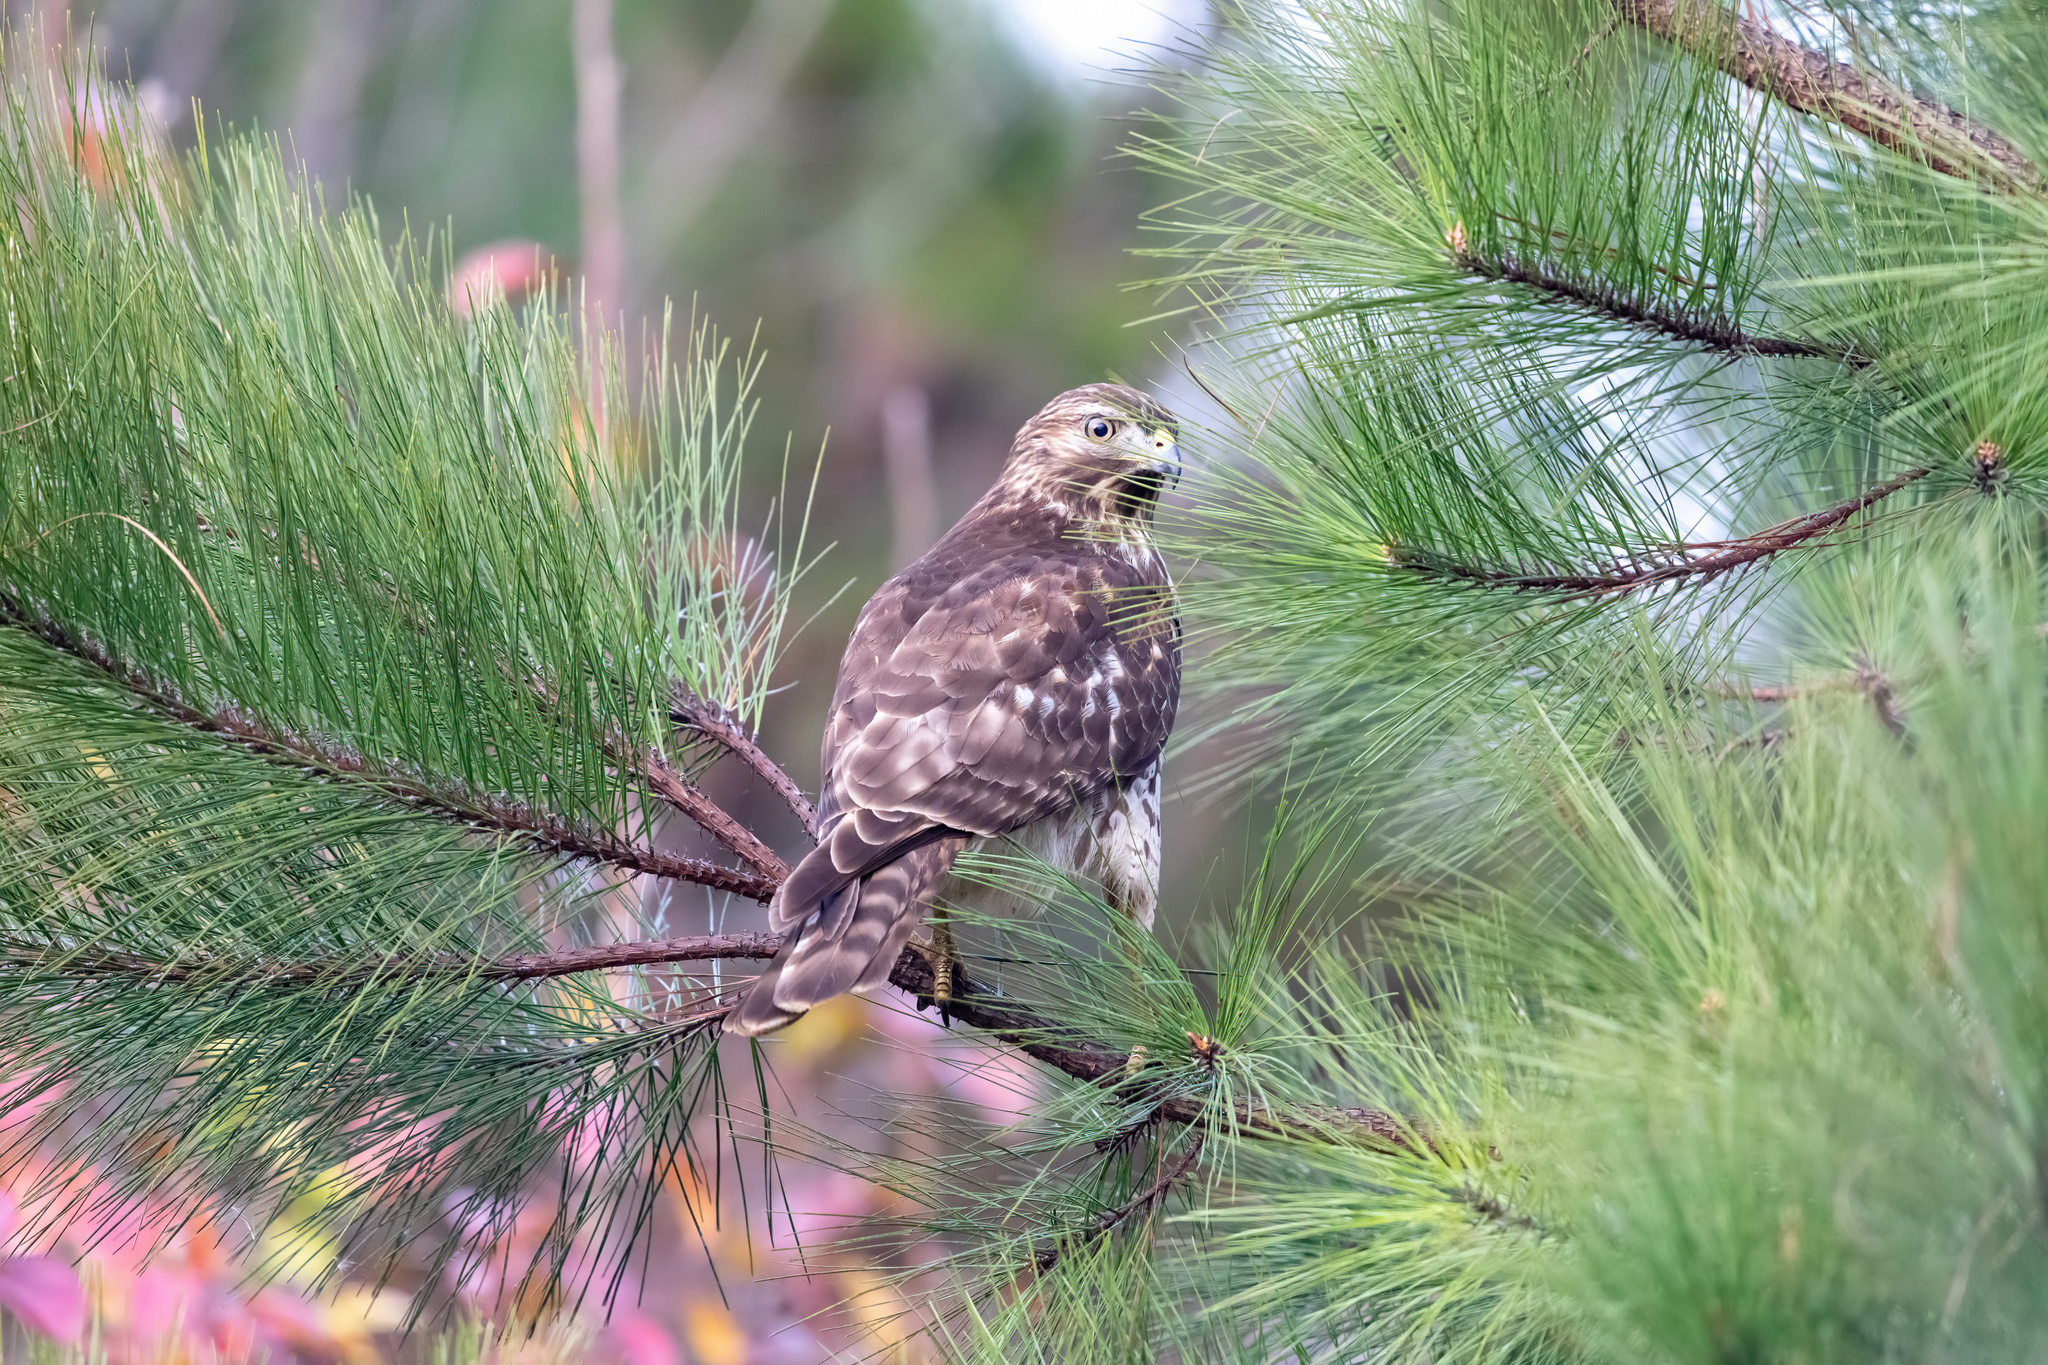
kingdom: Animalia
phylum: Chordata
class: Aves
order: Accipitriformes
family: Accipitridae
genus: Buteo
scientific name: Buteo lineatus
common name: Red-shouldered hawk
